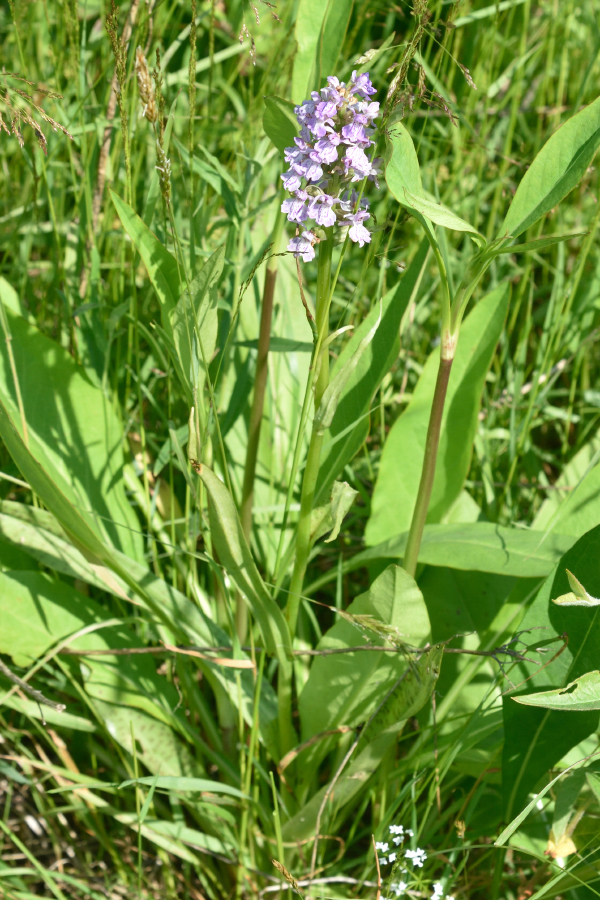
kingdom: Plantae
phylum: Tracheophyta
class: Liliopsida
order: Asparagales
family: Orchidaceae
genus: Dactylorhiza
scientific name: Dactylorhiza majalis
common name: Marsh orchid
